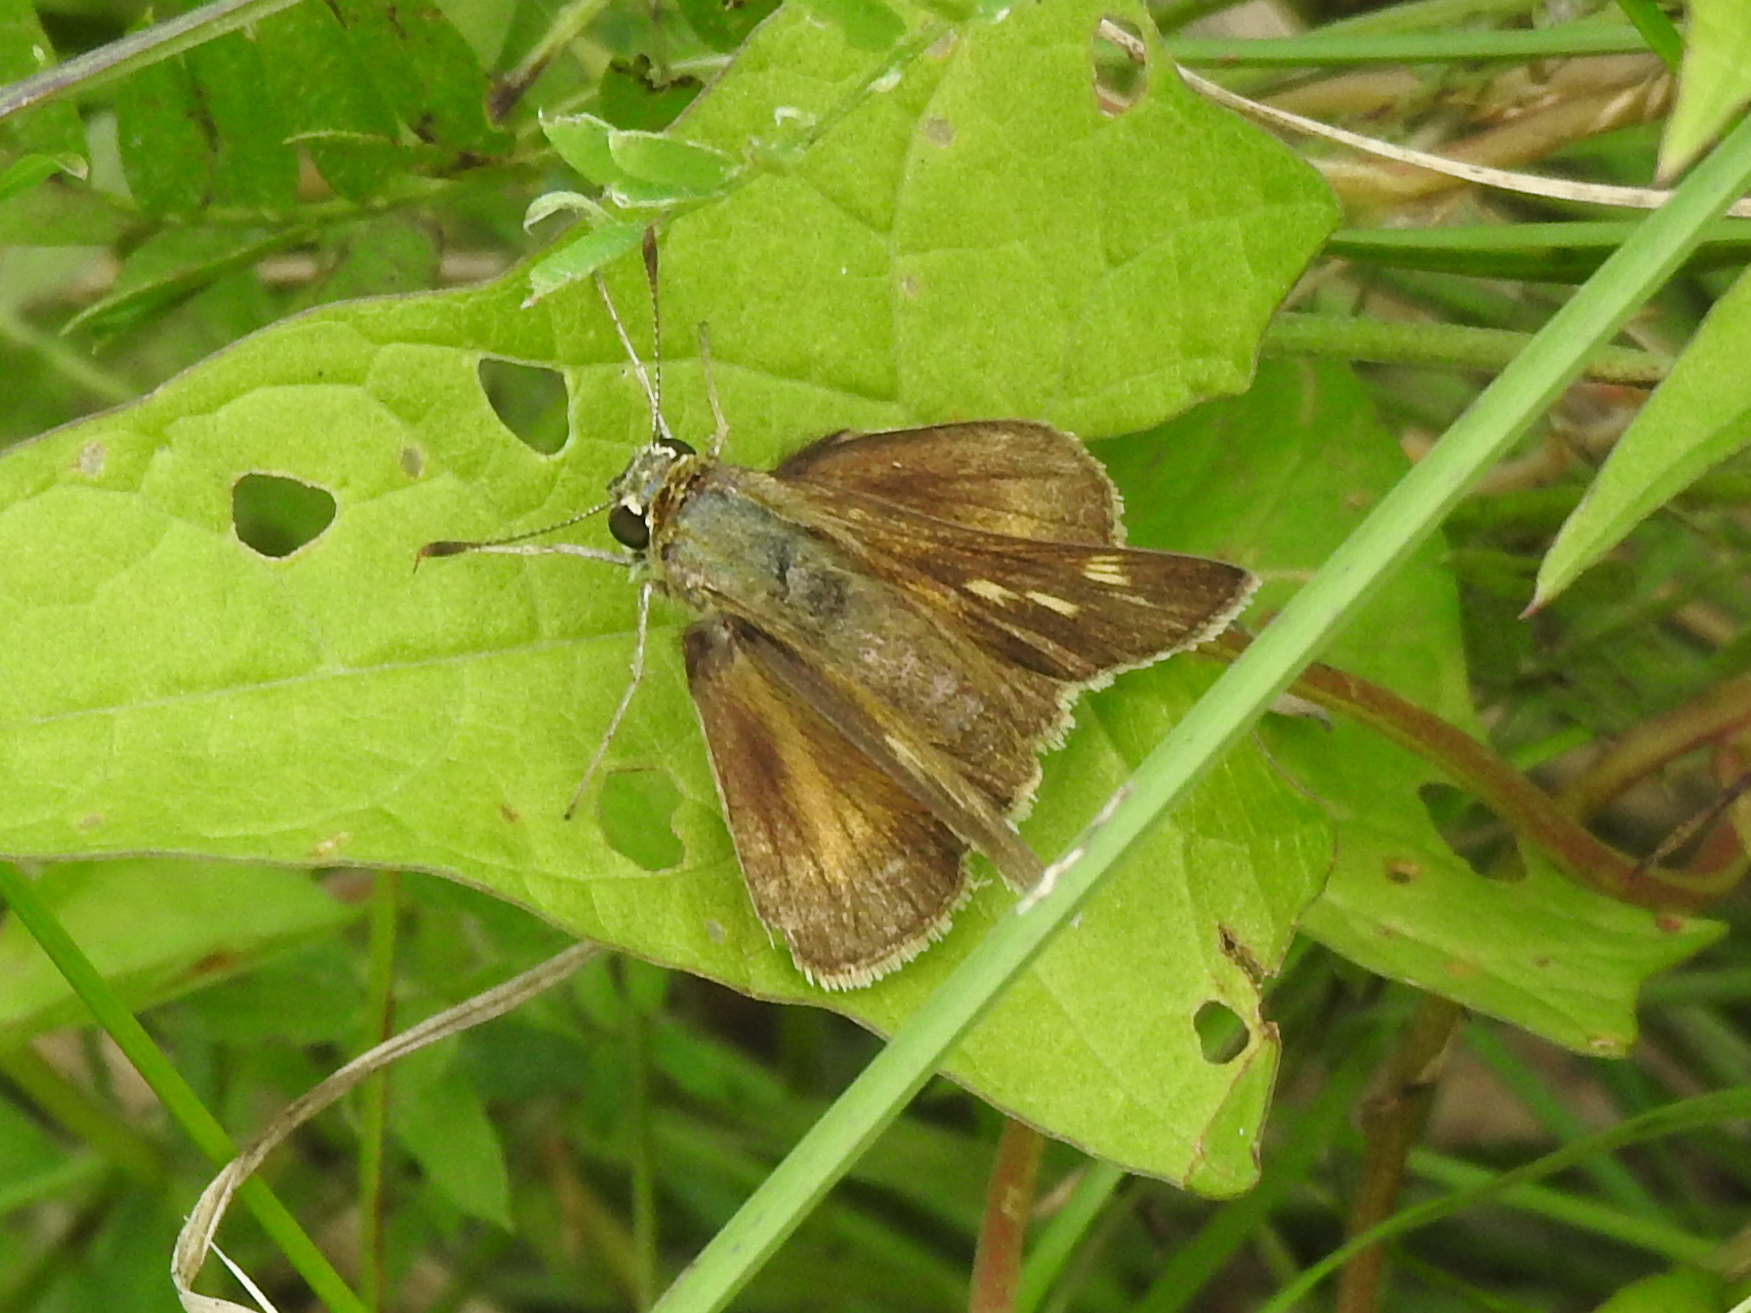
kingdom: Animalia
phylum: Arthropoda
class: Insecta
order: Lepidoptera
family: Hesperiidae
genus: Polites
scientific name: Polites egeremet
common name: Northern broken-dash
